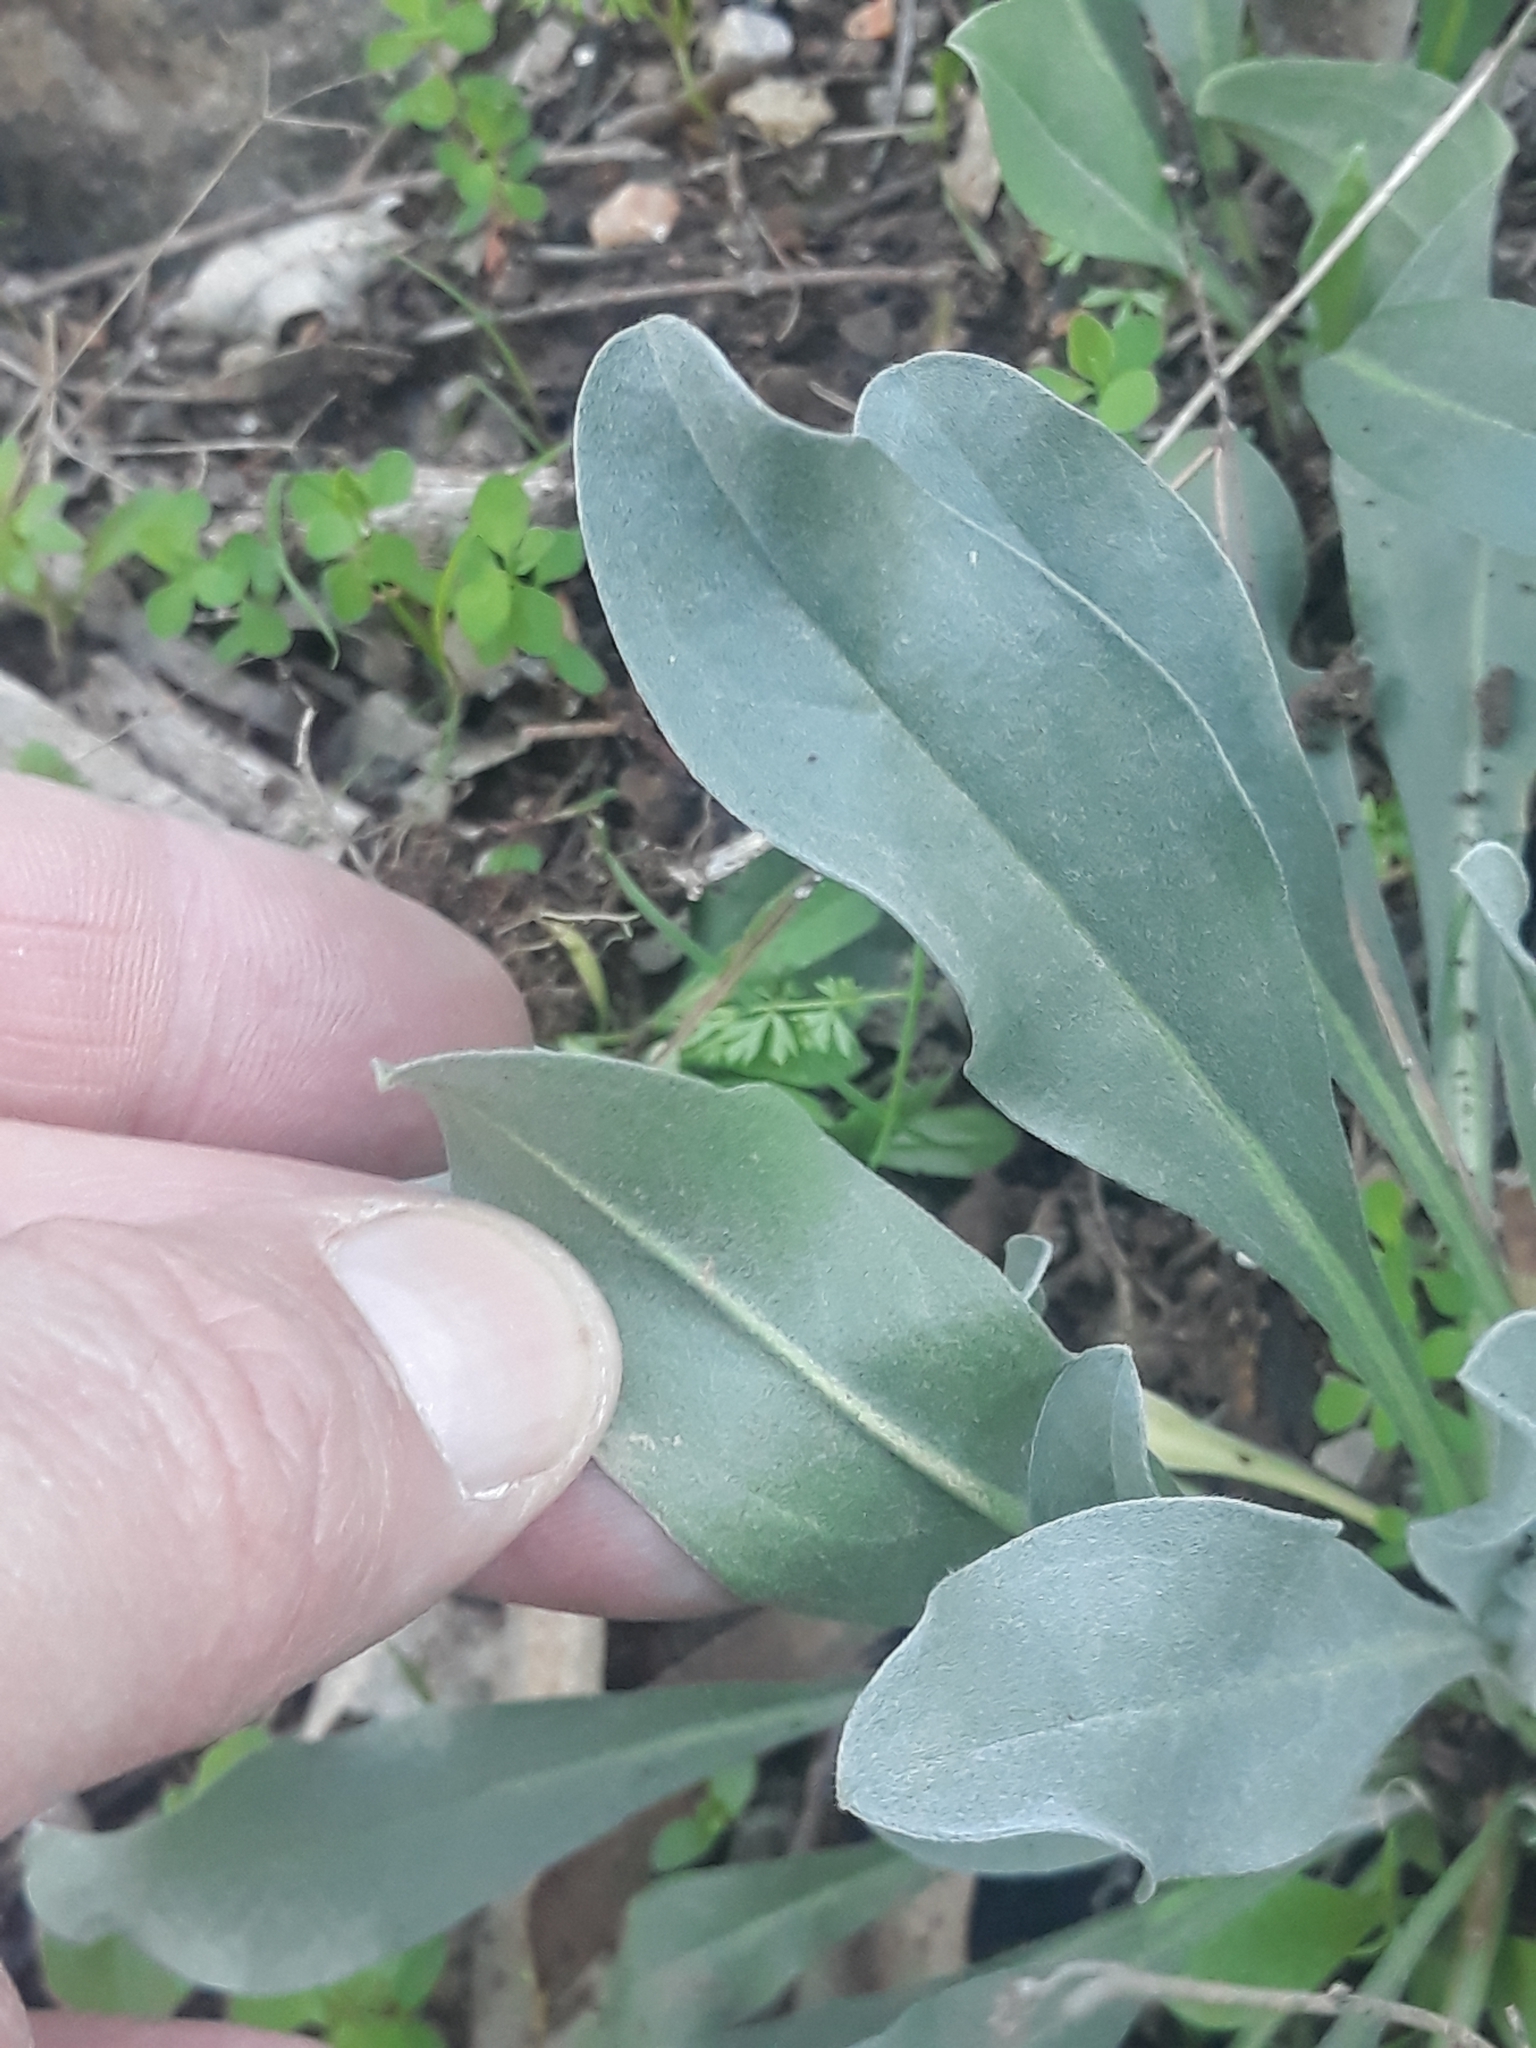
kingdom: Plantae
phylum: Tracheophyta
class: Magnoliopsida
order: Boraginales
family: Boraginaceae
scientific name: Boraginaceae
